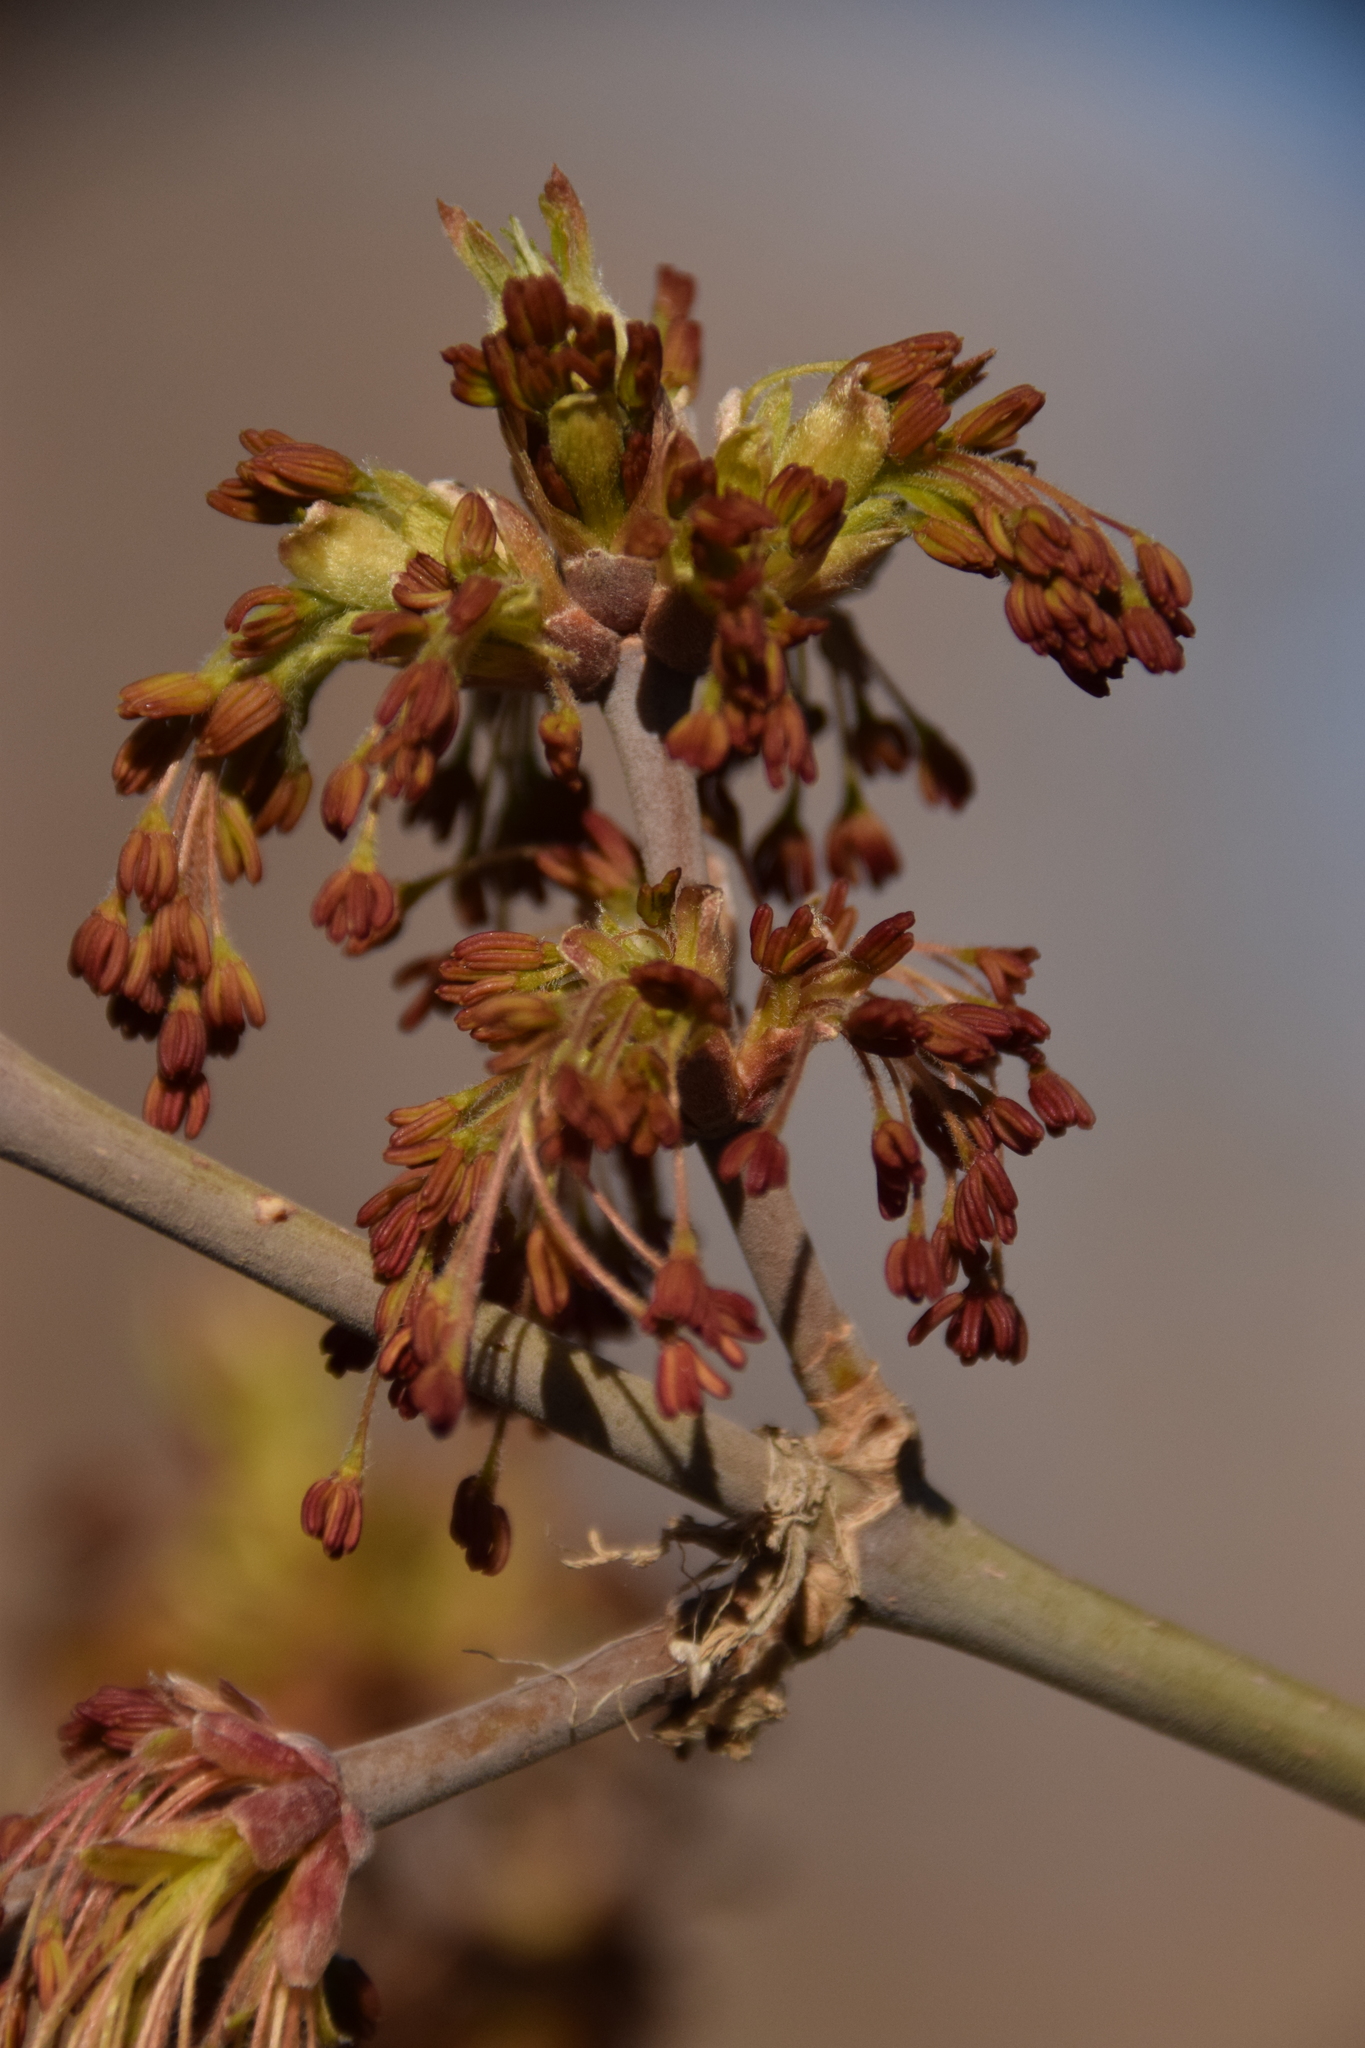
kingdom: Plantae
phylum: Tracheophyta
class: Magnoliopsida
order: Sapindales
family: Sapindaceae
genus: Acer
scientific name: Acer negundo
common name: Ashleaf maple
